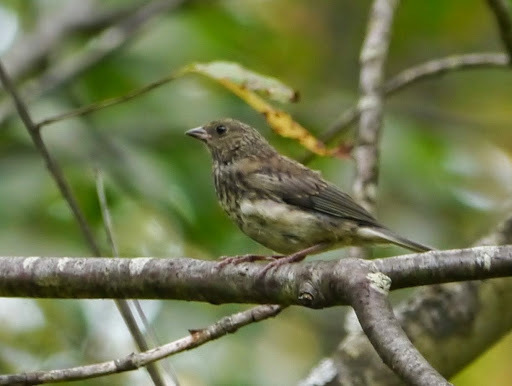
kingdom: Animalia
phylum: Chordata
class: Aves
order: Passeriformes
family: Passerellidae
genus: Junco
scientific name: Junco hyemalis
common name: Dark-eyed junco
